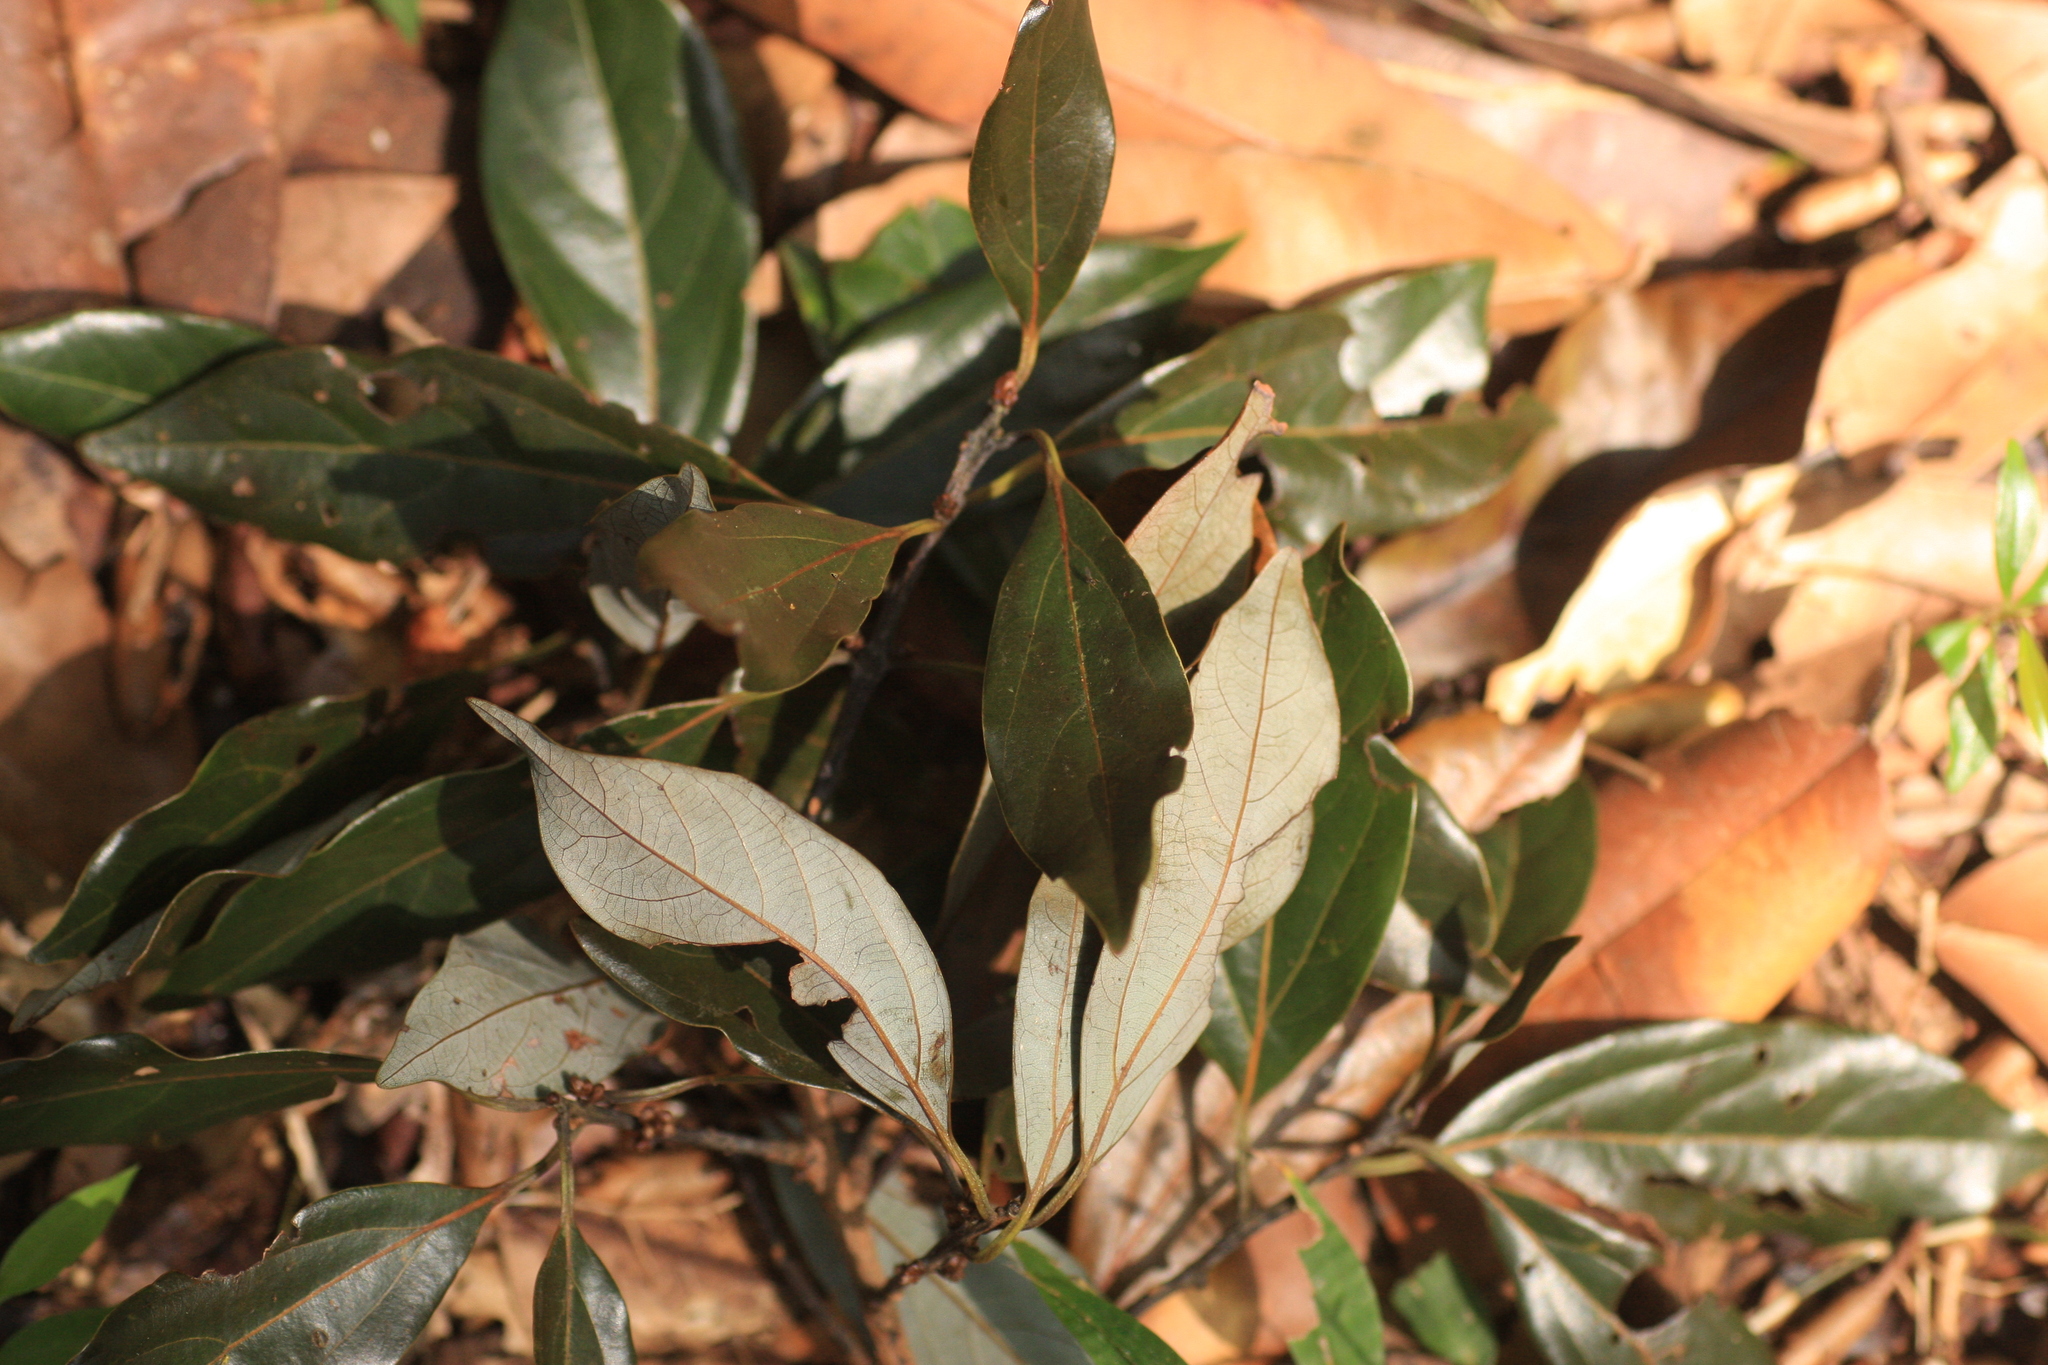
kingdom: Plantae
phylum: Tracheophyta
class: Magnoliopsida
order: Laurales
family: Lauraceae
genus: Neolitsea
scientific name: Neolitsea foliosa
